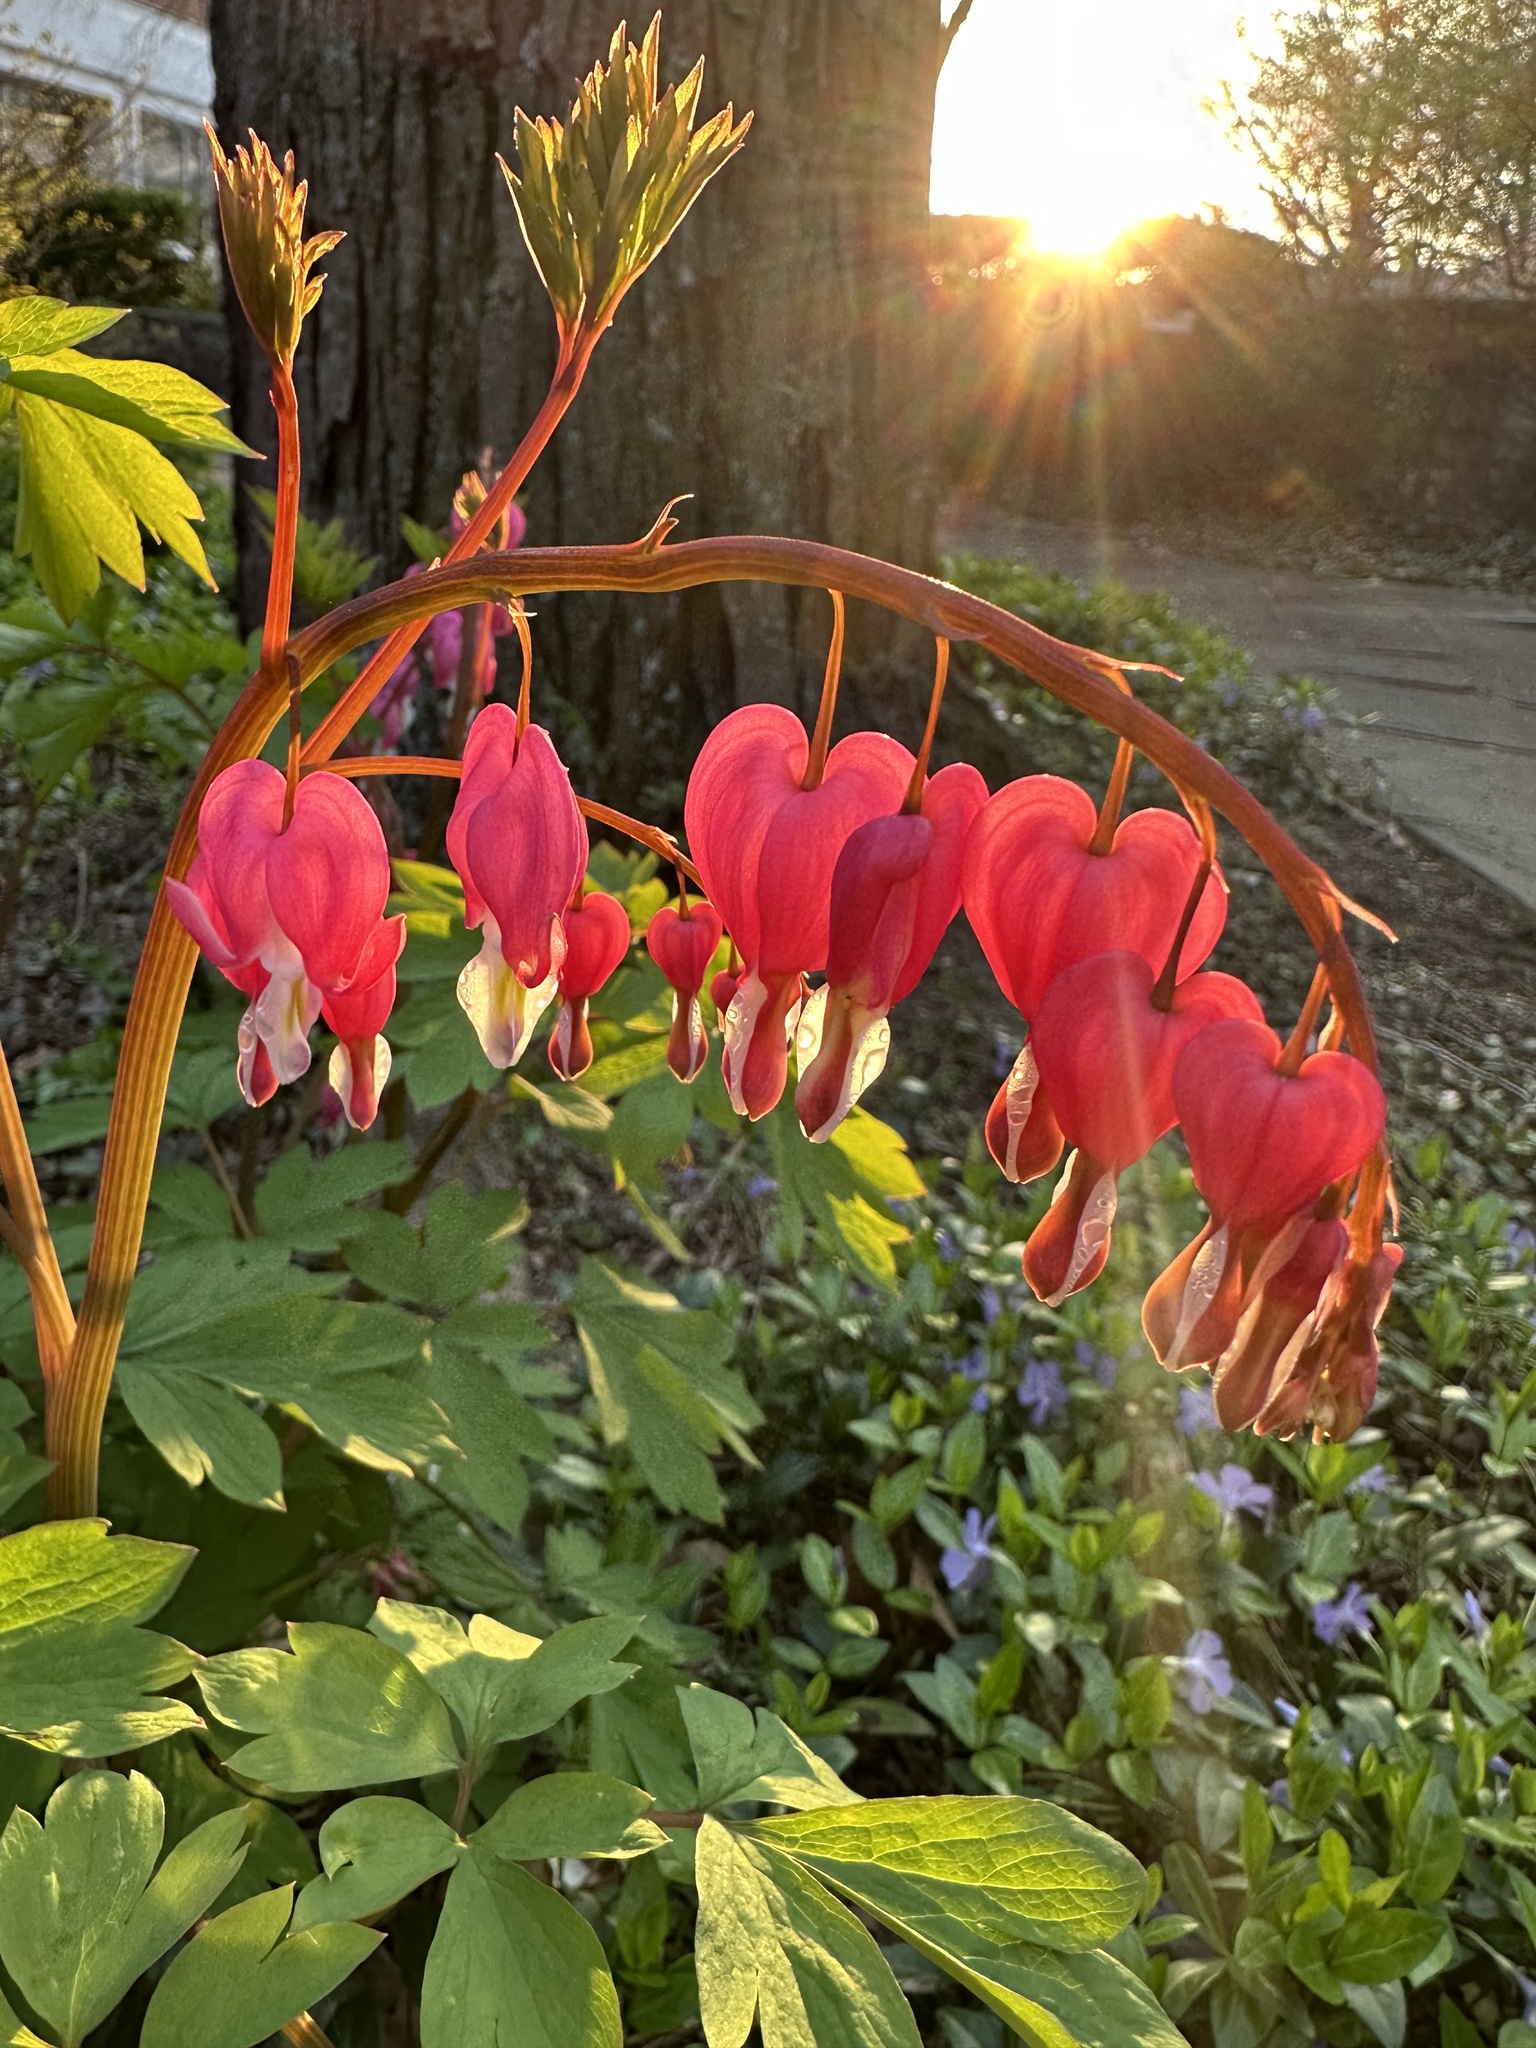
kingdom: Plantae
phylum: Tracheophyta
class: Magnoliopsida
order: Ranunculales
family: Papaveraceae
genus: Lamprocapnos
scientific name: Lamprocapnos spectabilis
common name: Asian bleeding-heart
